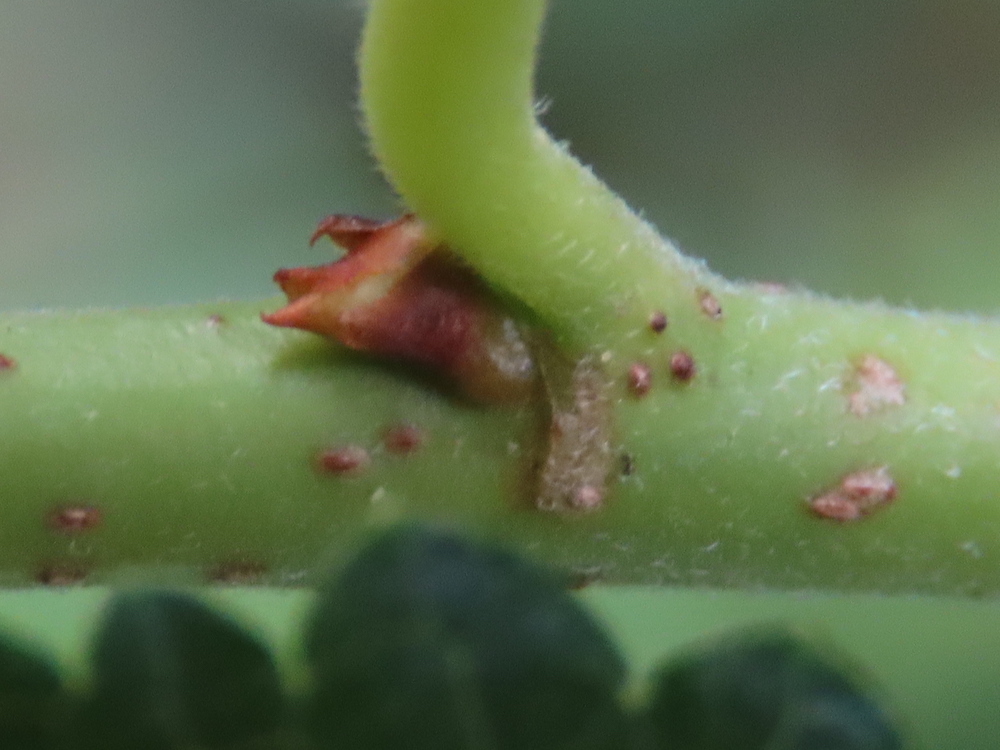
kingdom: Plantae
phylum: Tracheophyta
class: Magnoliopsida
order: Rosales
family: Moraceae
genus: Morus
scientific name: Morus alba
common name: White mulberry
